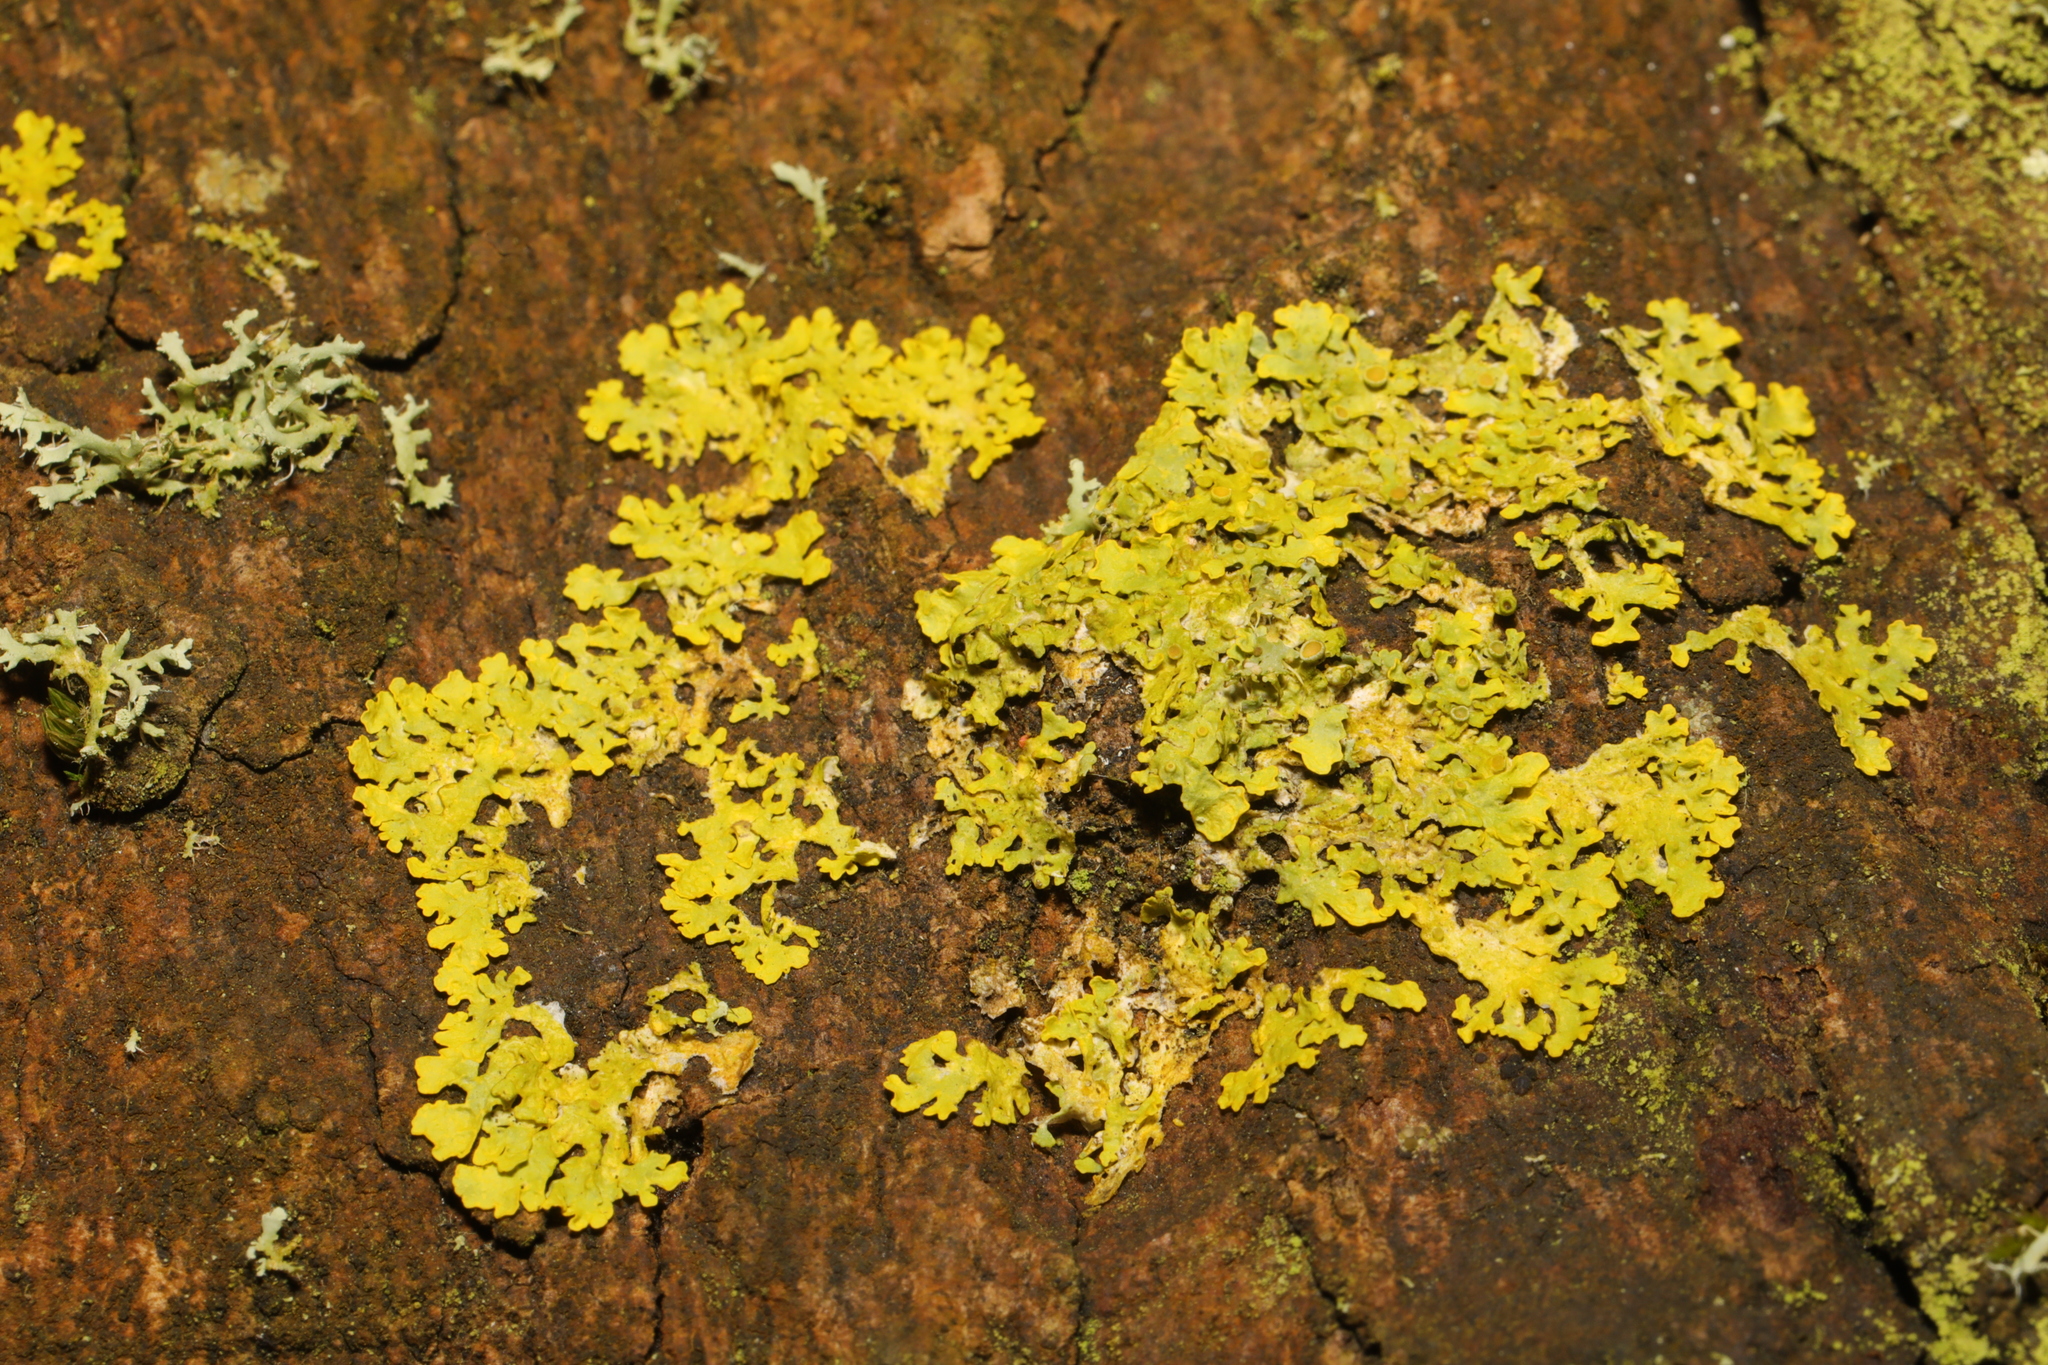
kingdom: Fungi
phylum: Ascomycota
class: Lecanoromycetes
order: Teloschistales
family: Teloschistaceae
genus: Xanthoria
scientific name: Xanthoria parietina
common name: Common orange lichen
